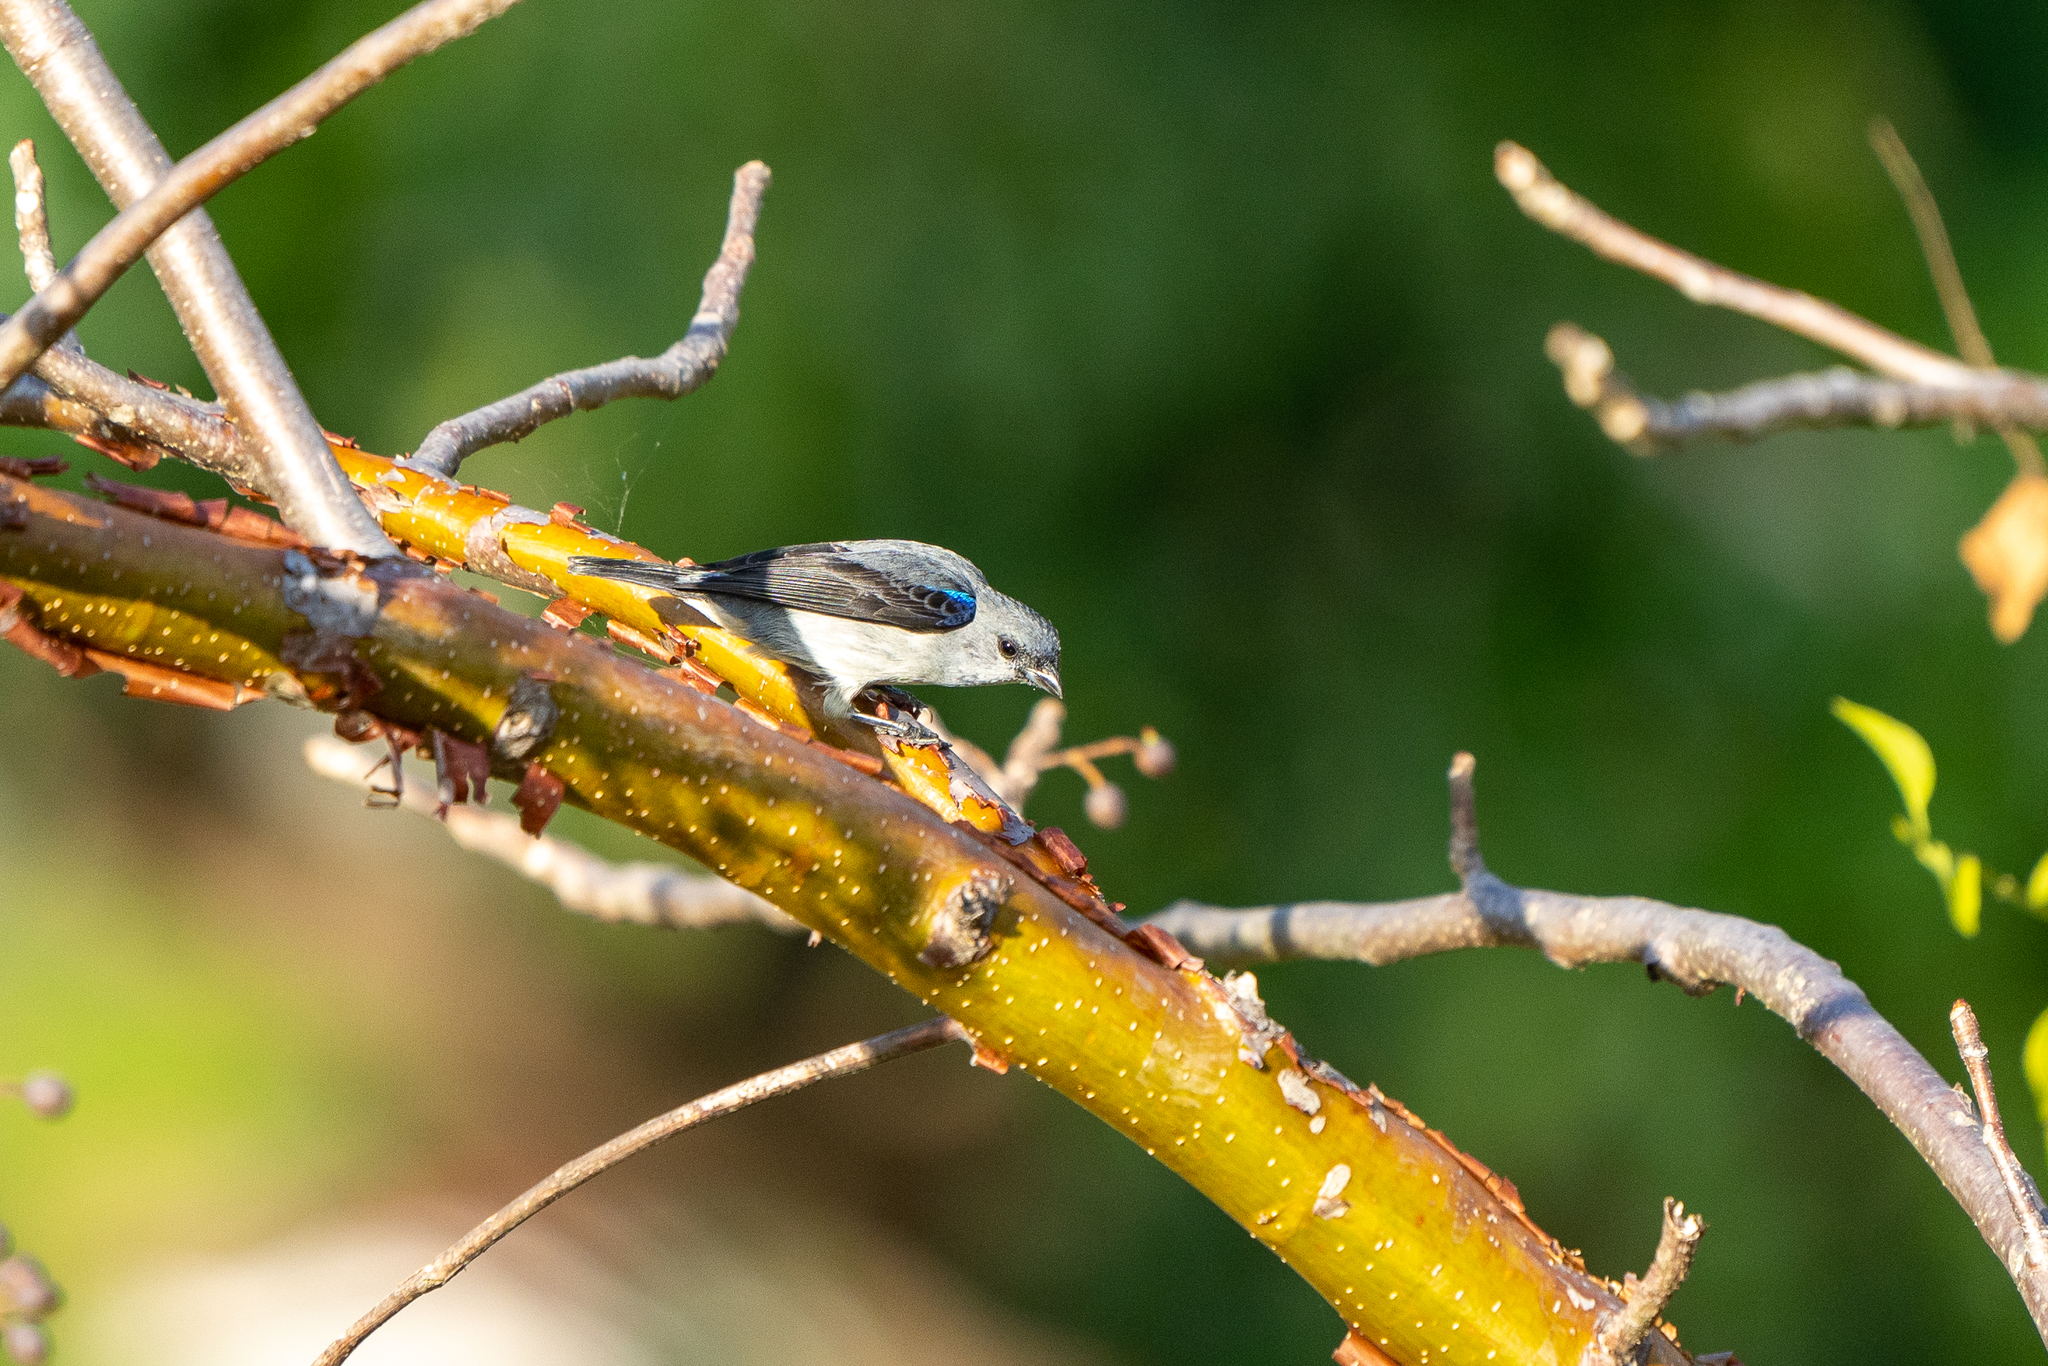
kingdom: Animalia
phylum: Chordata
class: Aves
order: Passeriformes
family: Thraupidae
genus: Tangara
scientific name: Tangara inornata
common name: Plain-colored tanager
